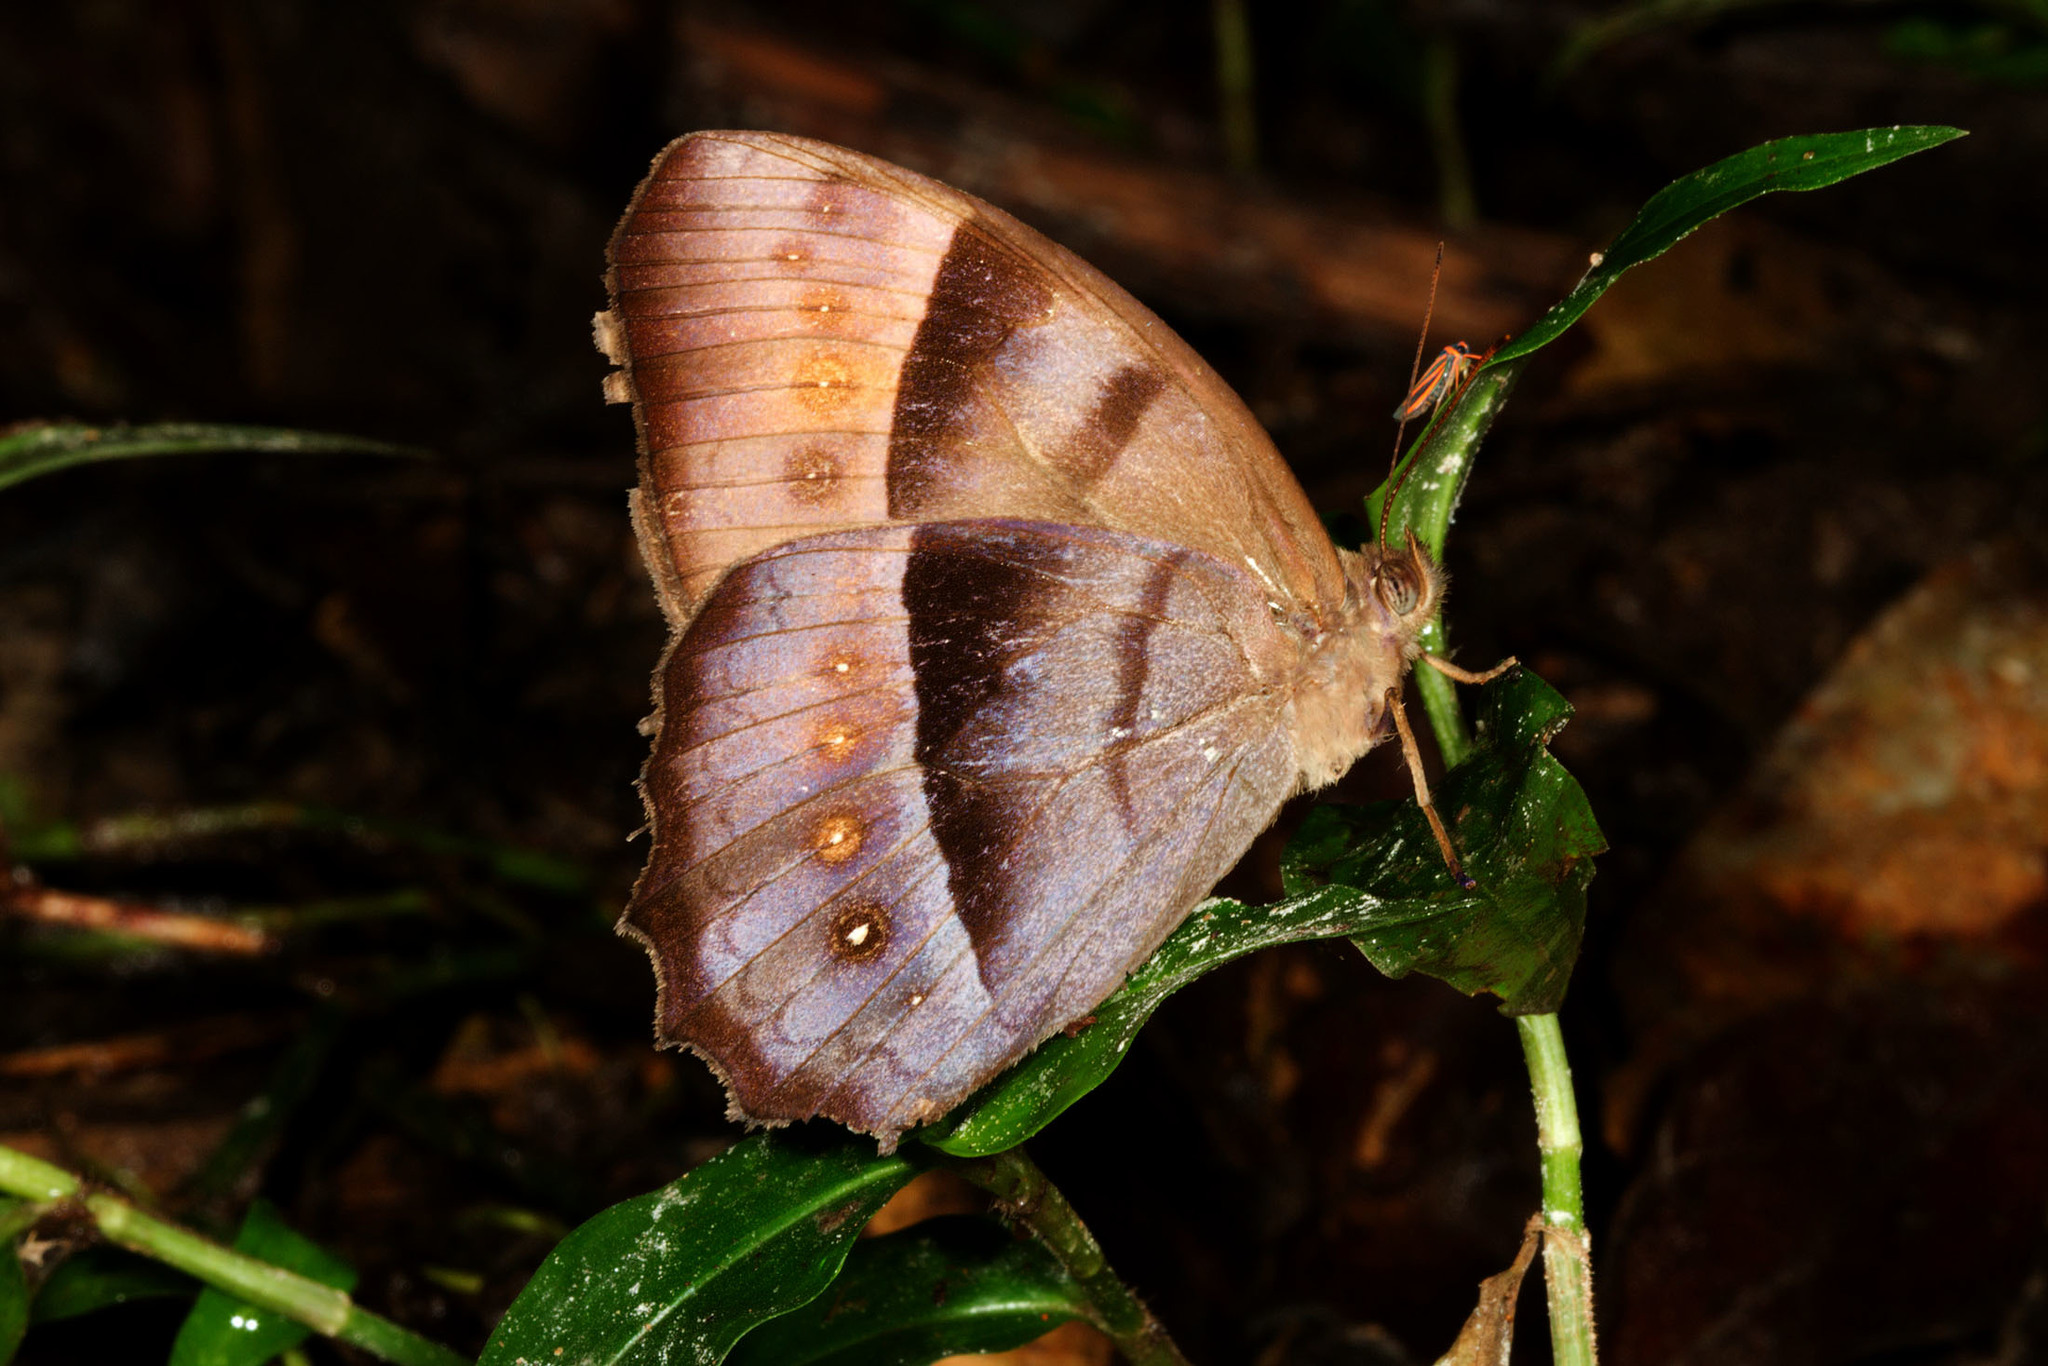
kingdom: Animalia
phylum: Arthropoda
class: Insecta
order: Lepidoptera
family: Nymphalidae
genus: Taygetis
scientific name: Taygetis thamyra
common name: Thamyra satyr
